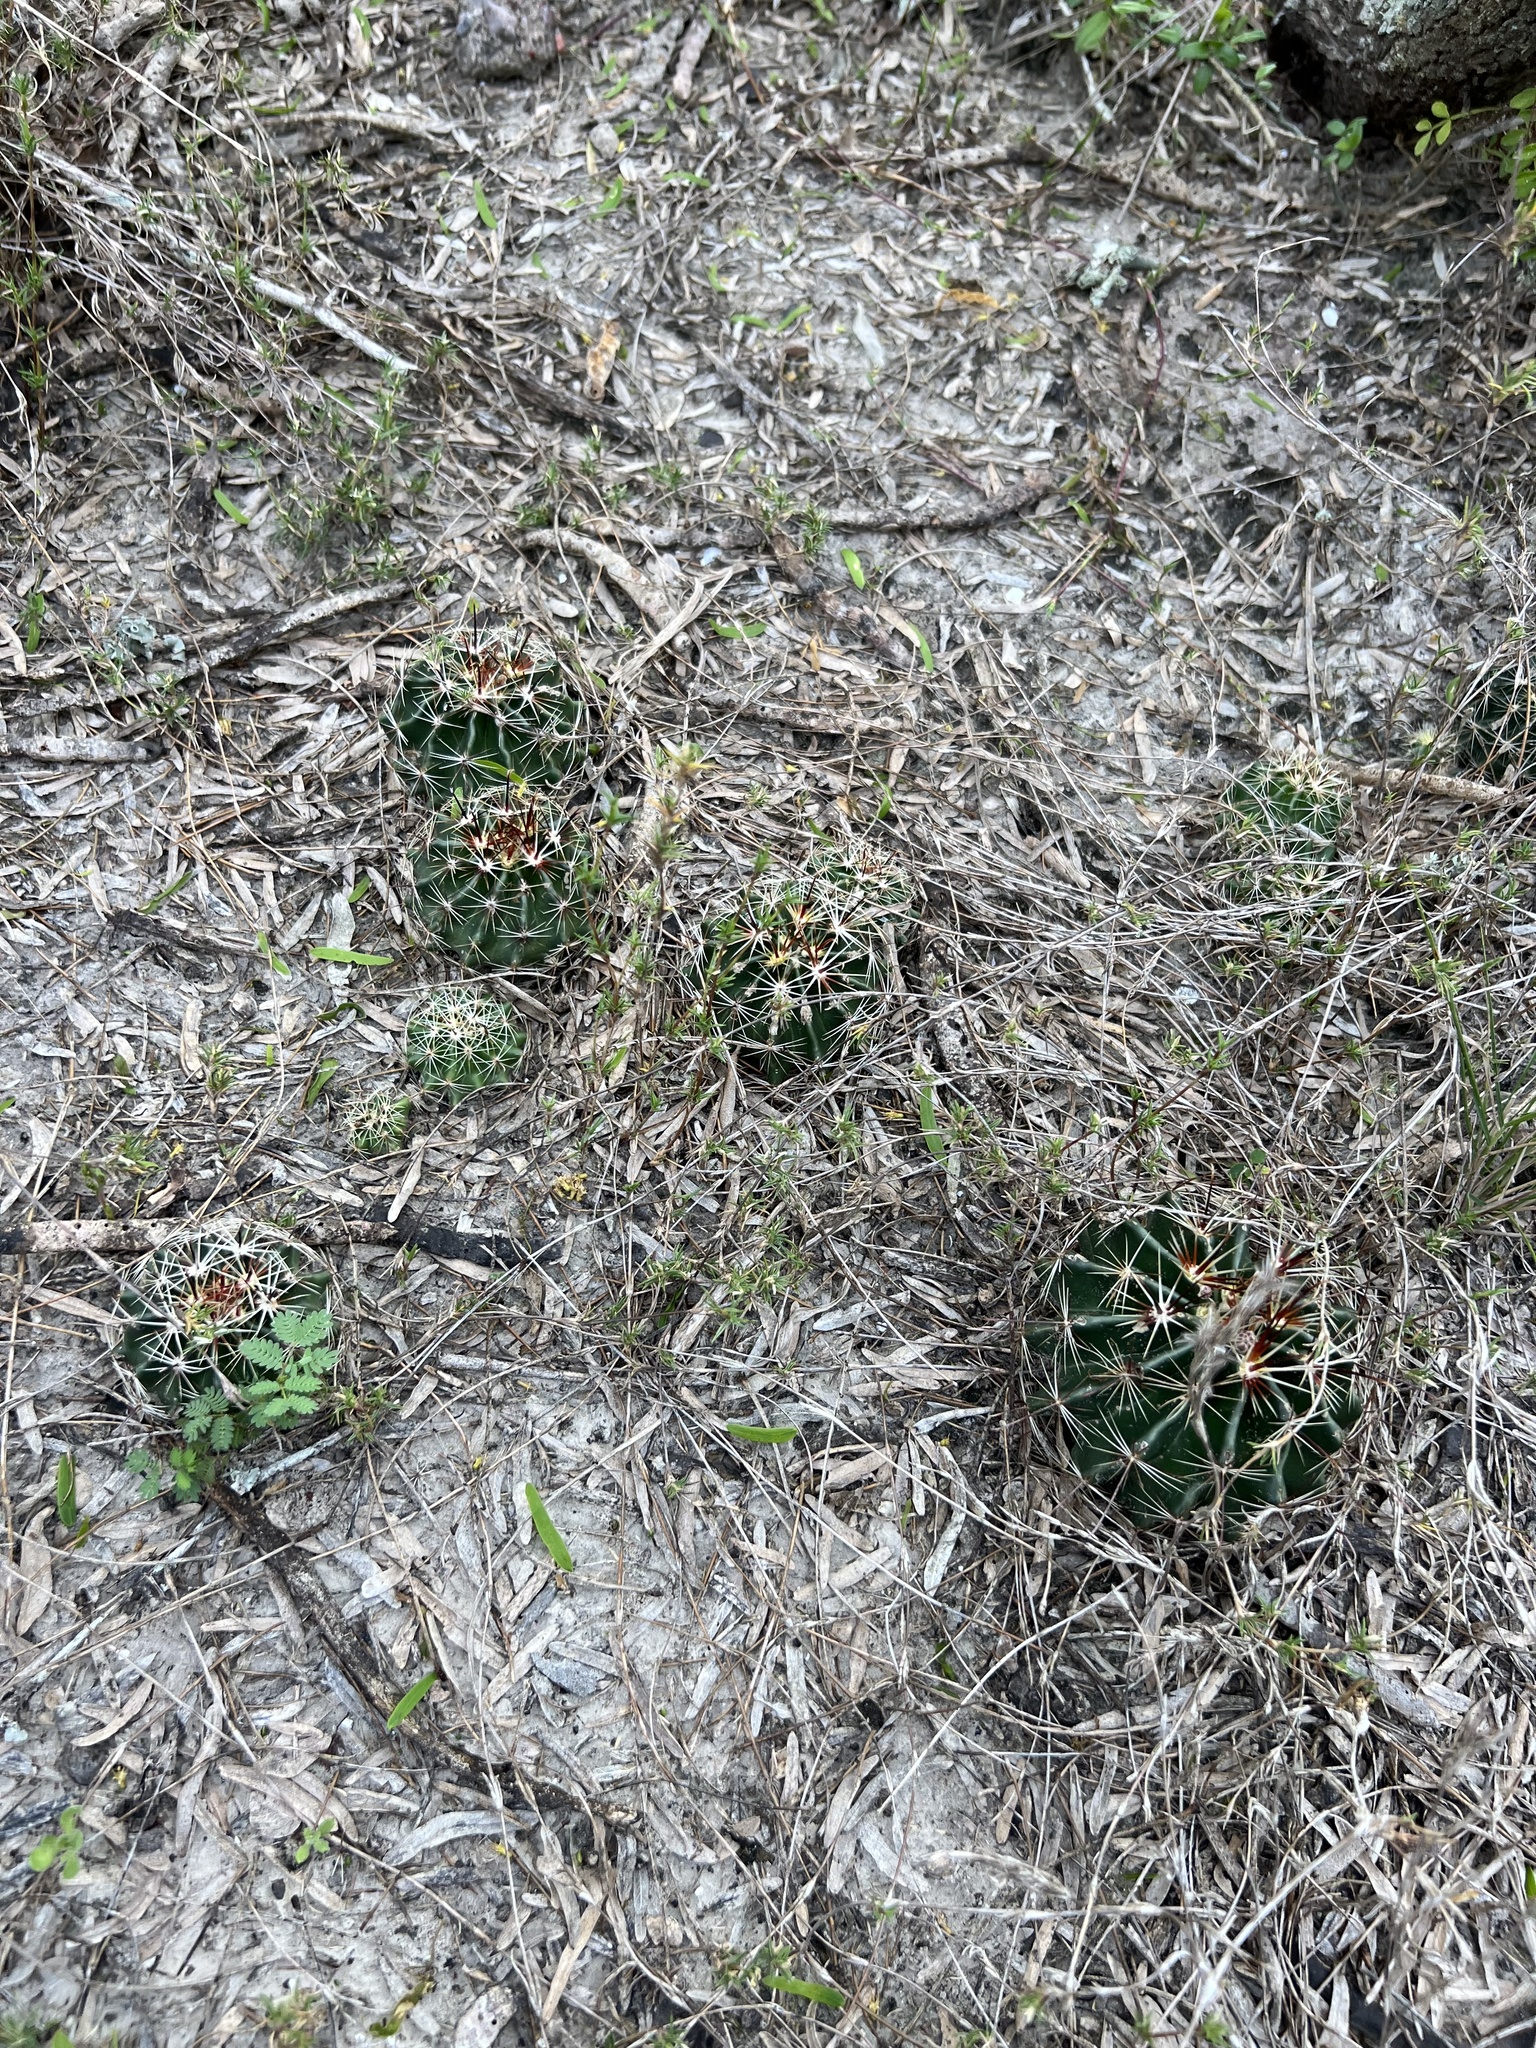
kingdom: Plantae
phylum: Tracheophyta
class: Magnoliopsida
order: Caryophyllales
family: Cactaceae
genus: Thelocactus
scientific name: Thelocactus setispinus
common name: Miniature barrel cactus
